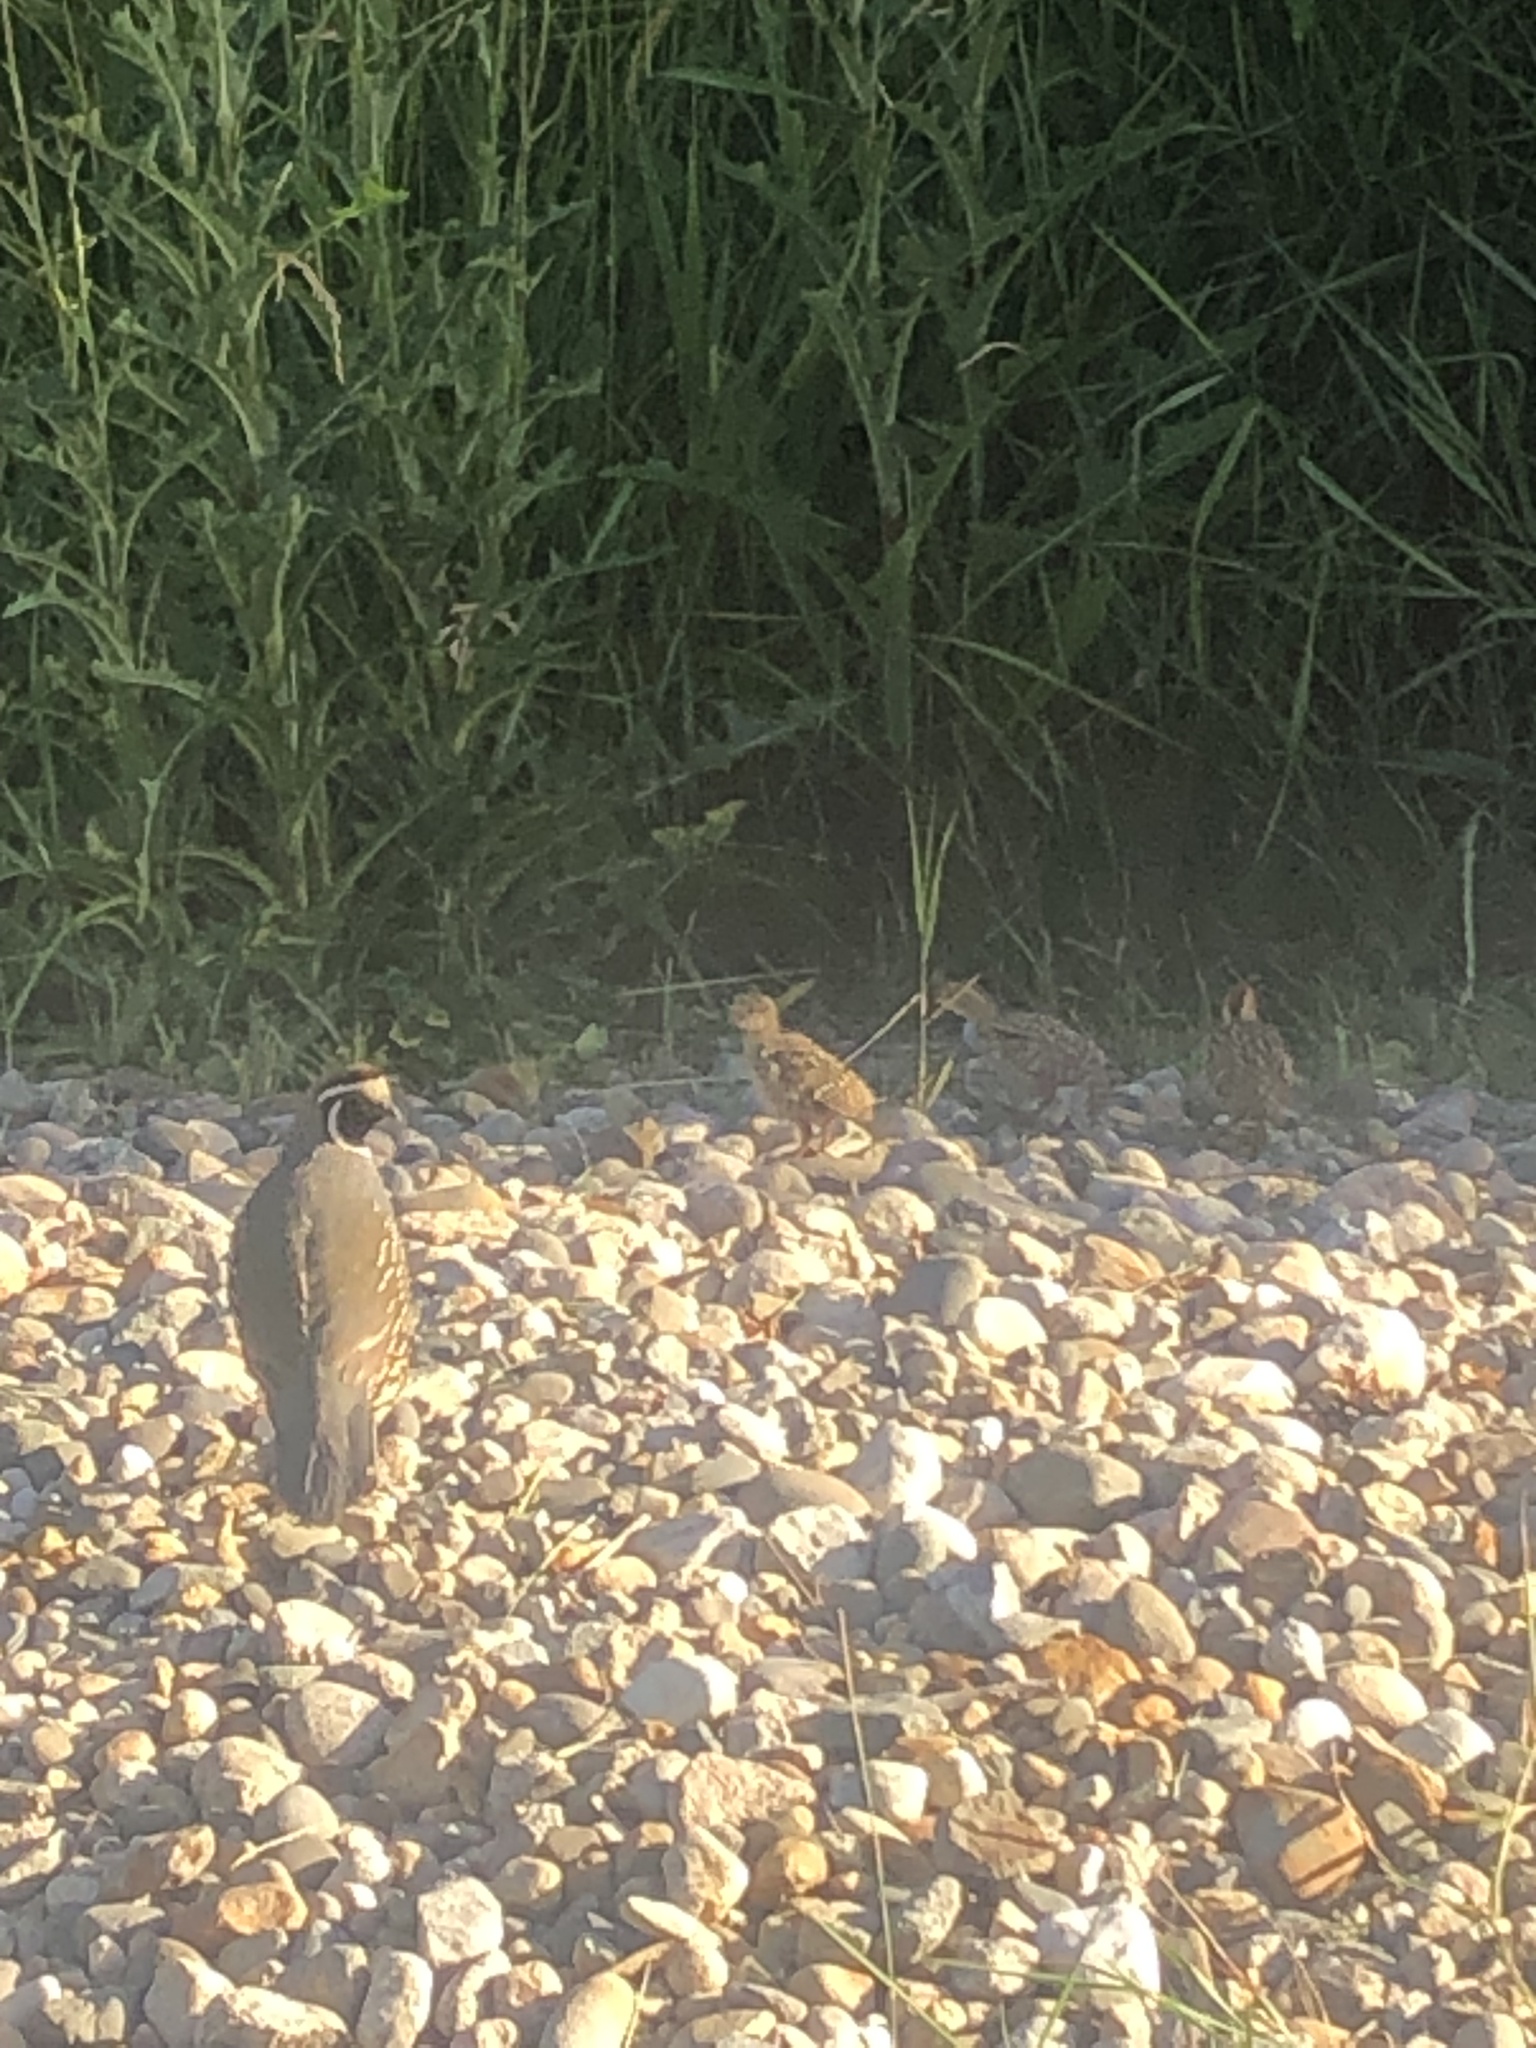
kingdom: Animalia
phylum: Chordata
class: Aves
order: Galliformes
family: Odontophoridae
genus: Callipepla
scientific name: Callipepla californica
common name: California quail
